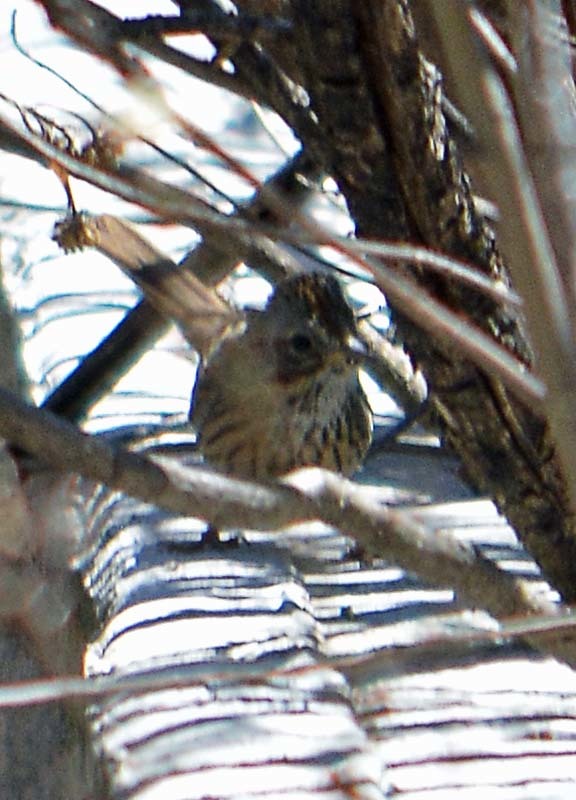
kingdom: Animalia
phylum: Chordata
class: Aves
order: Passeriformes
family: Passerellidae
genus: Melospiza
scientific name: Melospiza lincolnii
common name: Lincoln's sparrow
